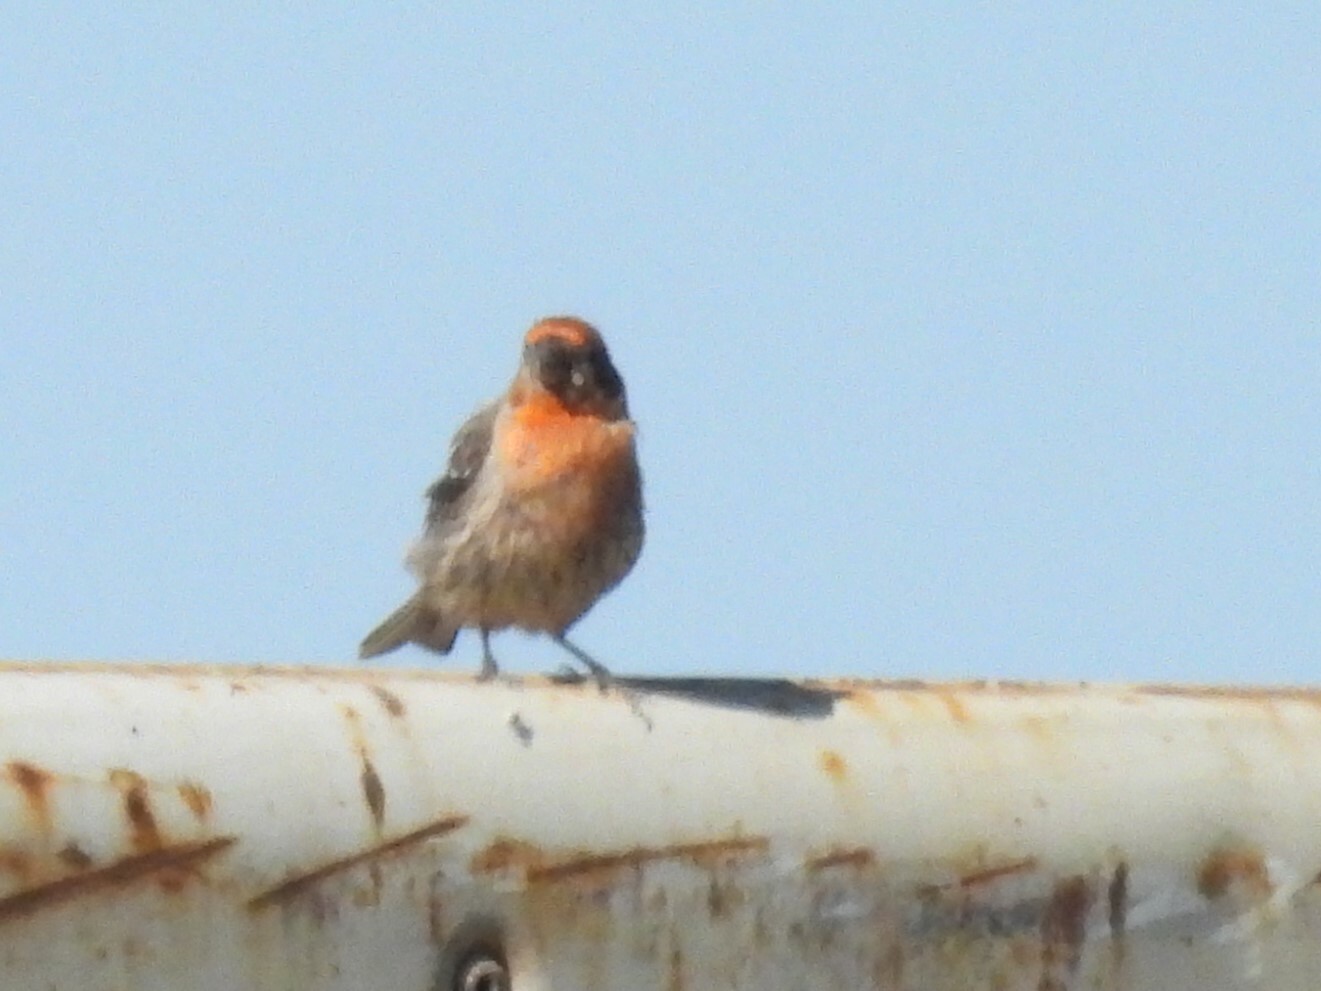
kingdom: Animalia
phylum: Chordata
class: Aves
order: Passeriformes
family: Fringillidae
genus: Haemorhous
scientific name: Haemorhous mexicanus
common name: House finch
